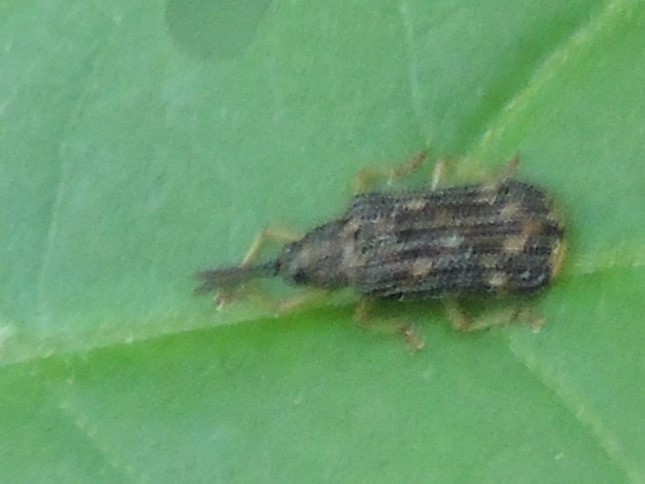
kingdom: Animalia
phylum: Arthropoda
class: Insecta
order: Coleoptera
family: Chrysomelidae
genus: Sumitrosis
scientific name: Sumitrosis inaequalis
